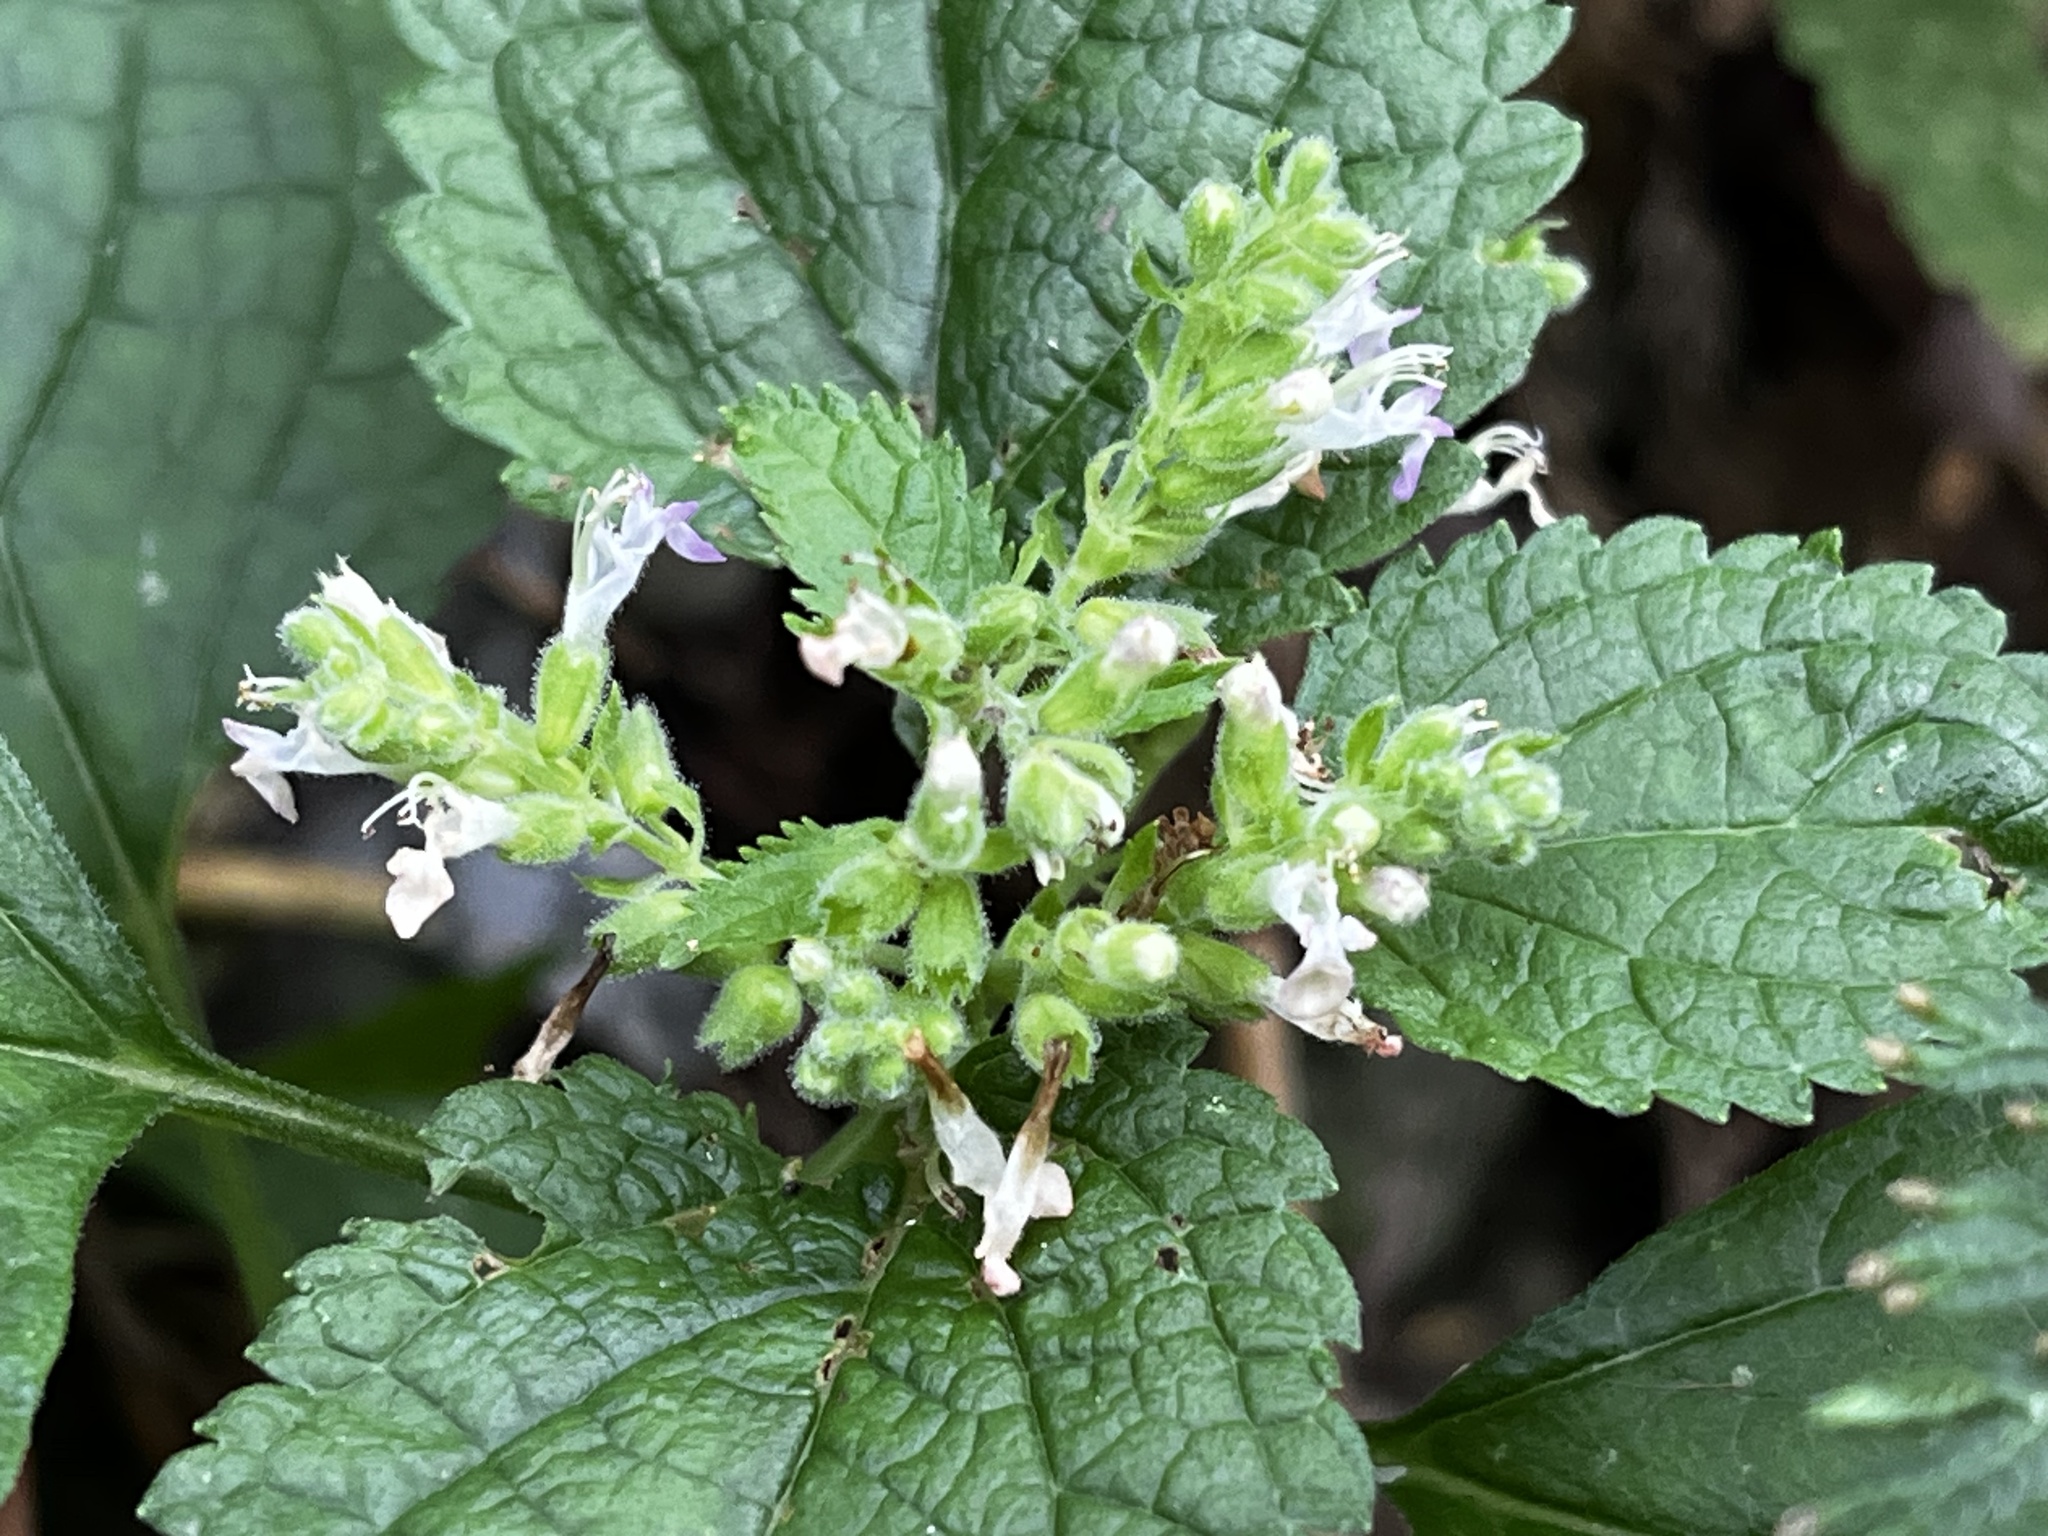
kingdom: Plantae
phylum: Tracheophyta
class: Magnoliopsida
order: Lamiales
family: Lamiaceae
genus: Teucrium
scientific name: Teucrium viscidum
